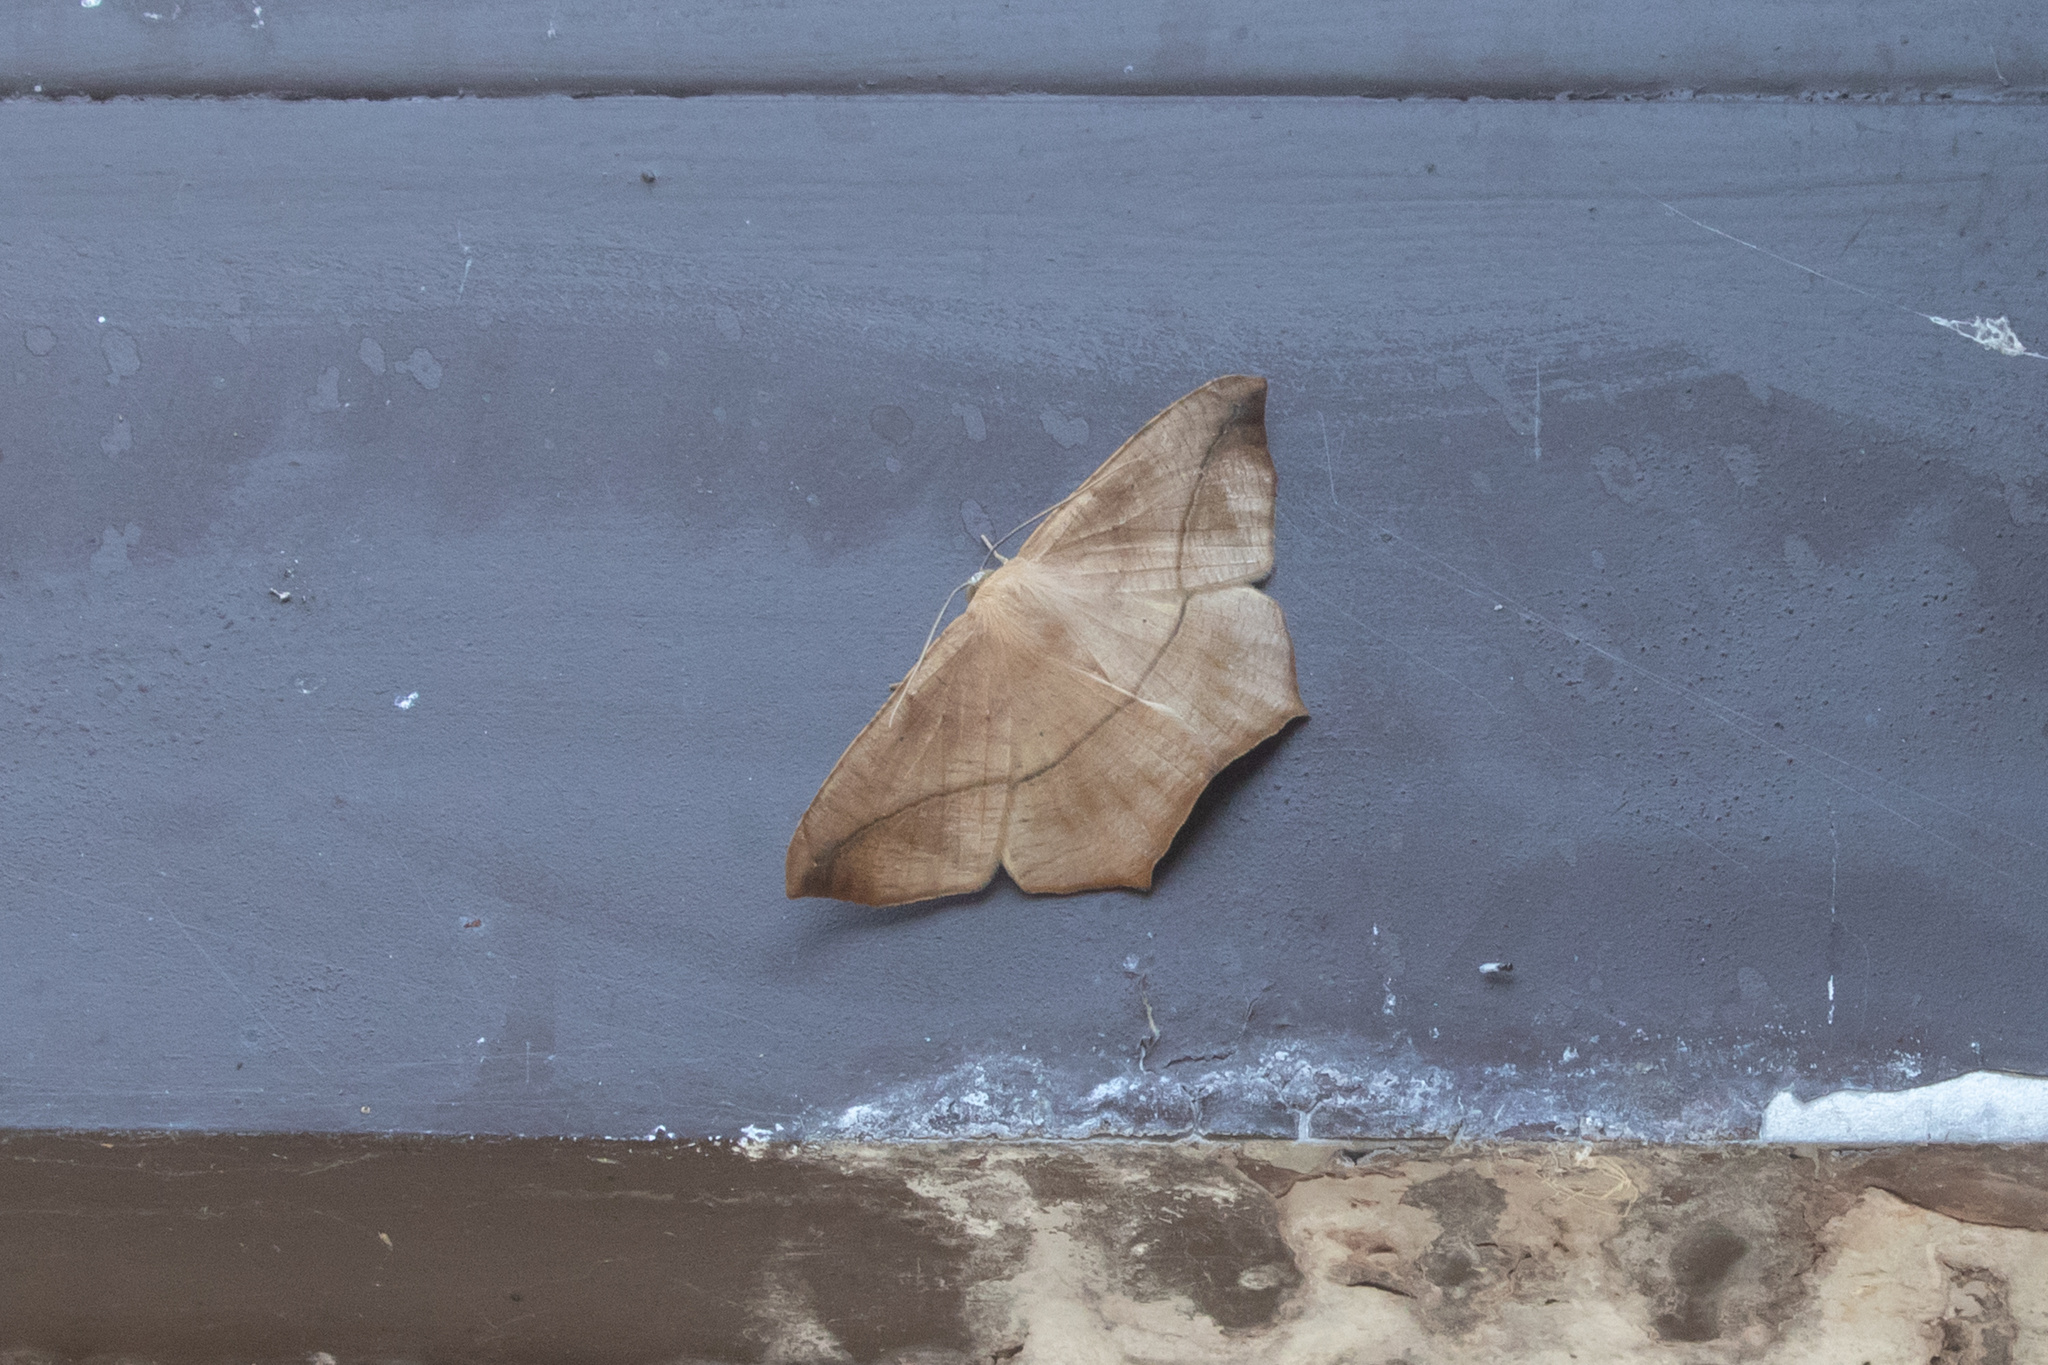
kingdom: Animalia
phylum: Arthropoda
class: Insecta
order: Lepidoptera
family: Geometridae
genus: Prochoerodes
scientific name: Prochoerodes lineola
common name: Large maple spanworm
